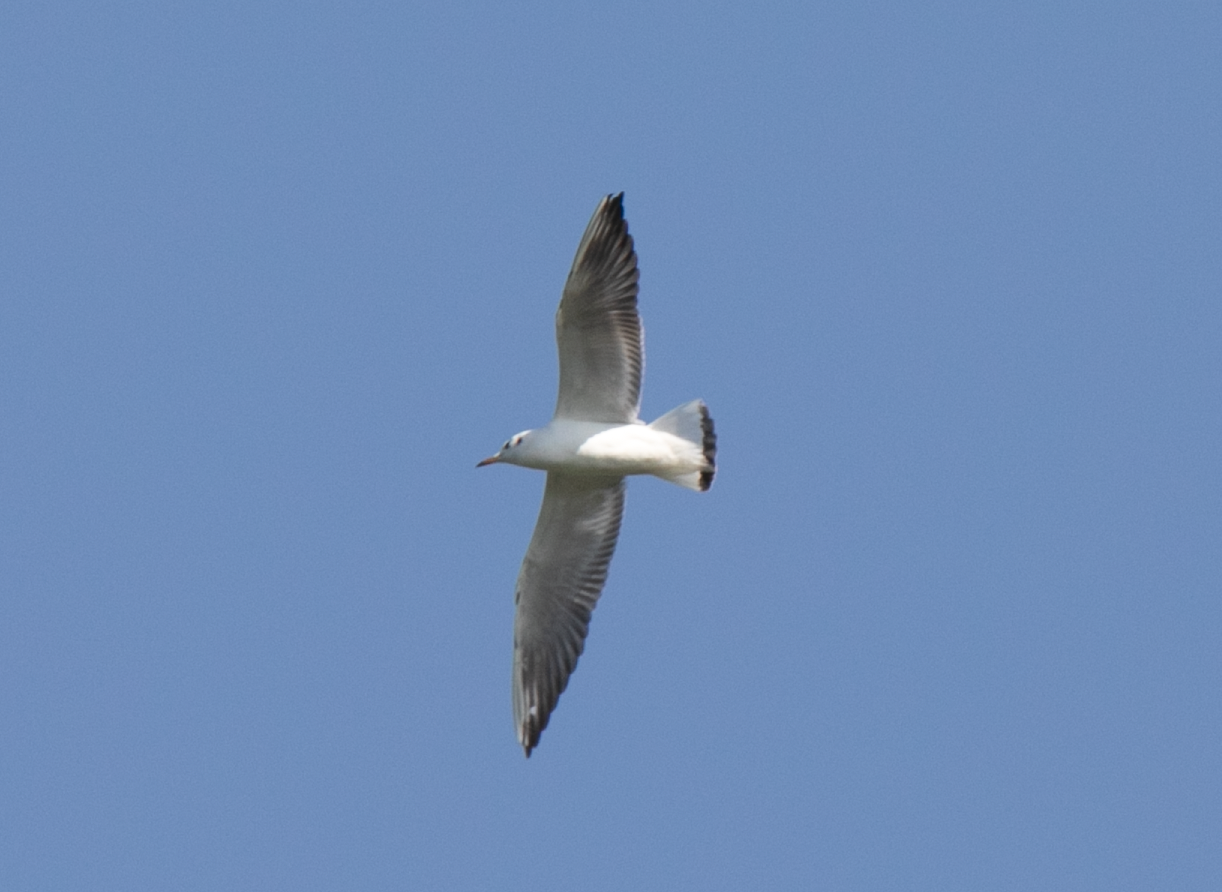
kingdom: Animalia
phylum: Chordata
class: Aves
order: Charadriiformes
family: Laridae
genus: Chroicocephalus
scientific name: Chroicocephalus ridibundus
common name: Black-headed gull
